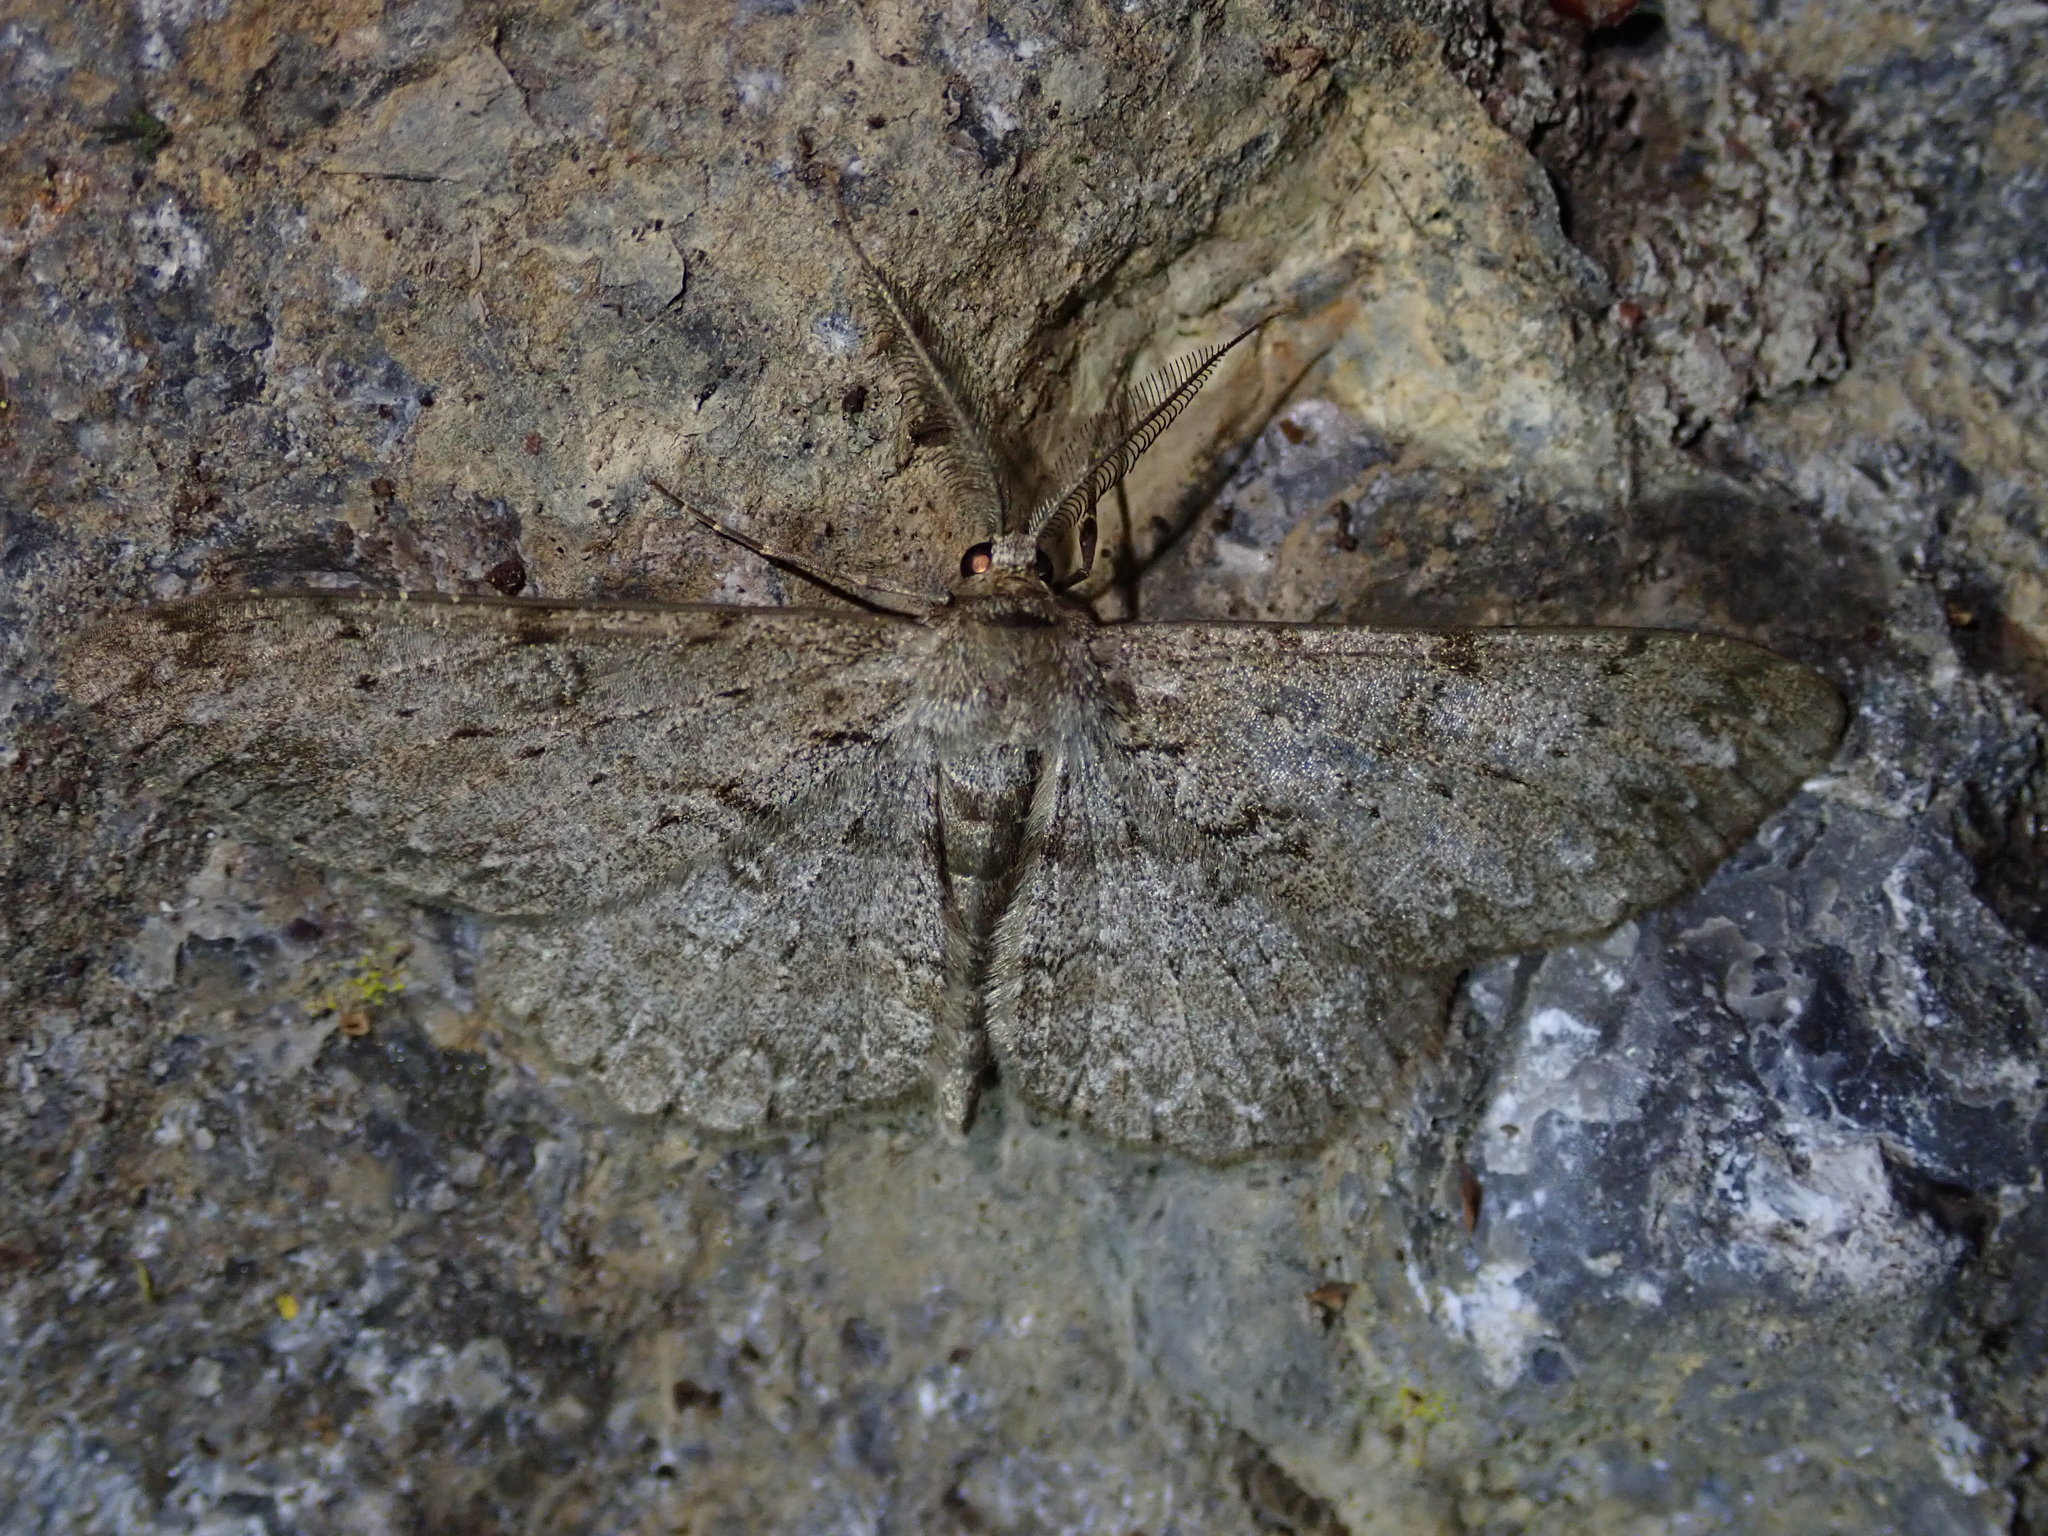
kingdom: Animalia
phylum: Arthropoda
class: Insecta
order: Lepidoptera
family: Geometridae
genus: Hypomecis
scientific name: Hypomecis punctinalis
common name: Pale oak beauty
